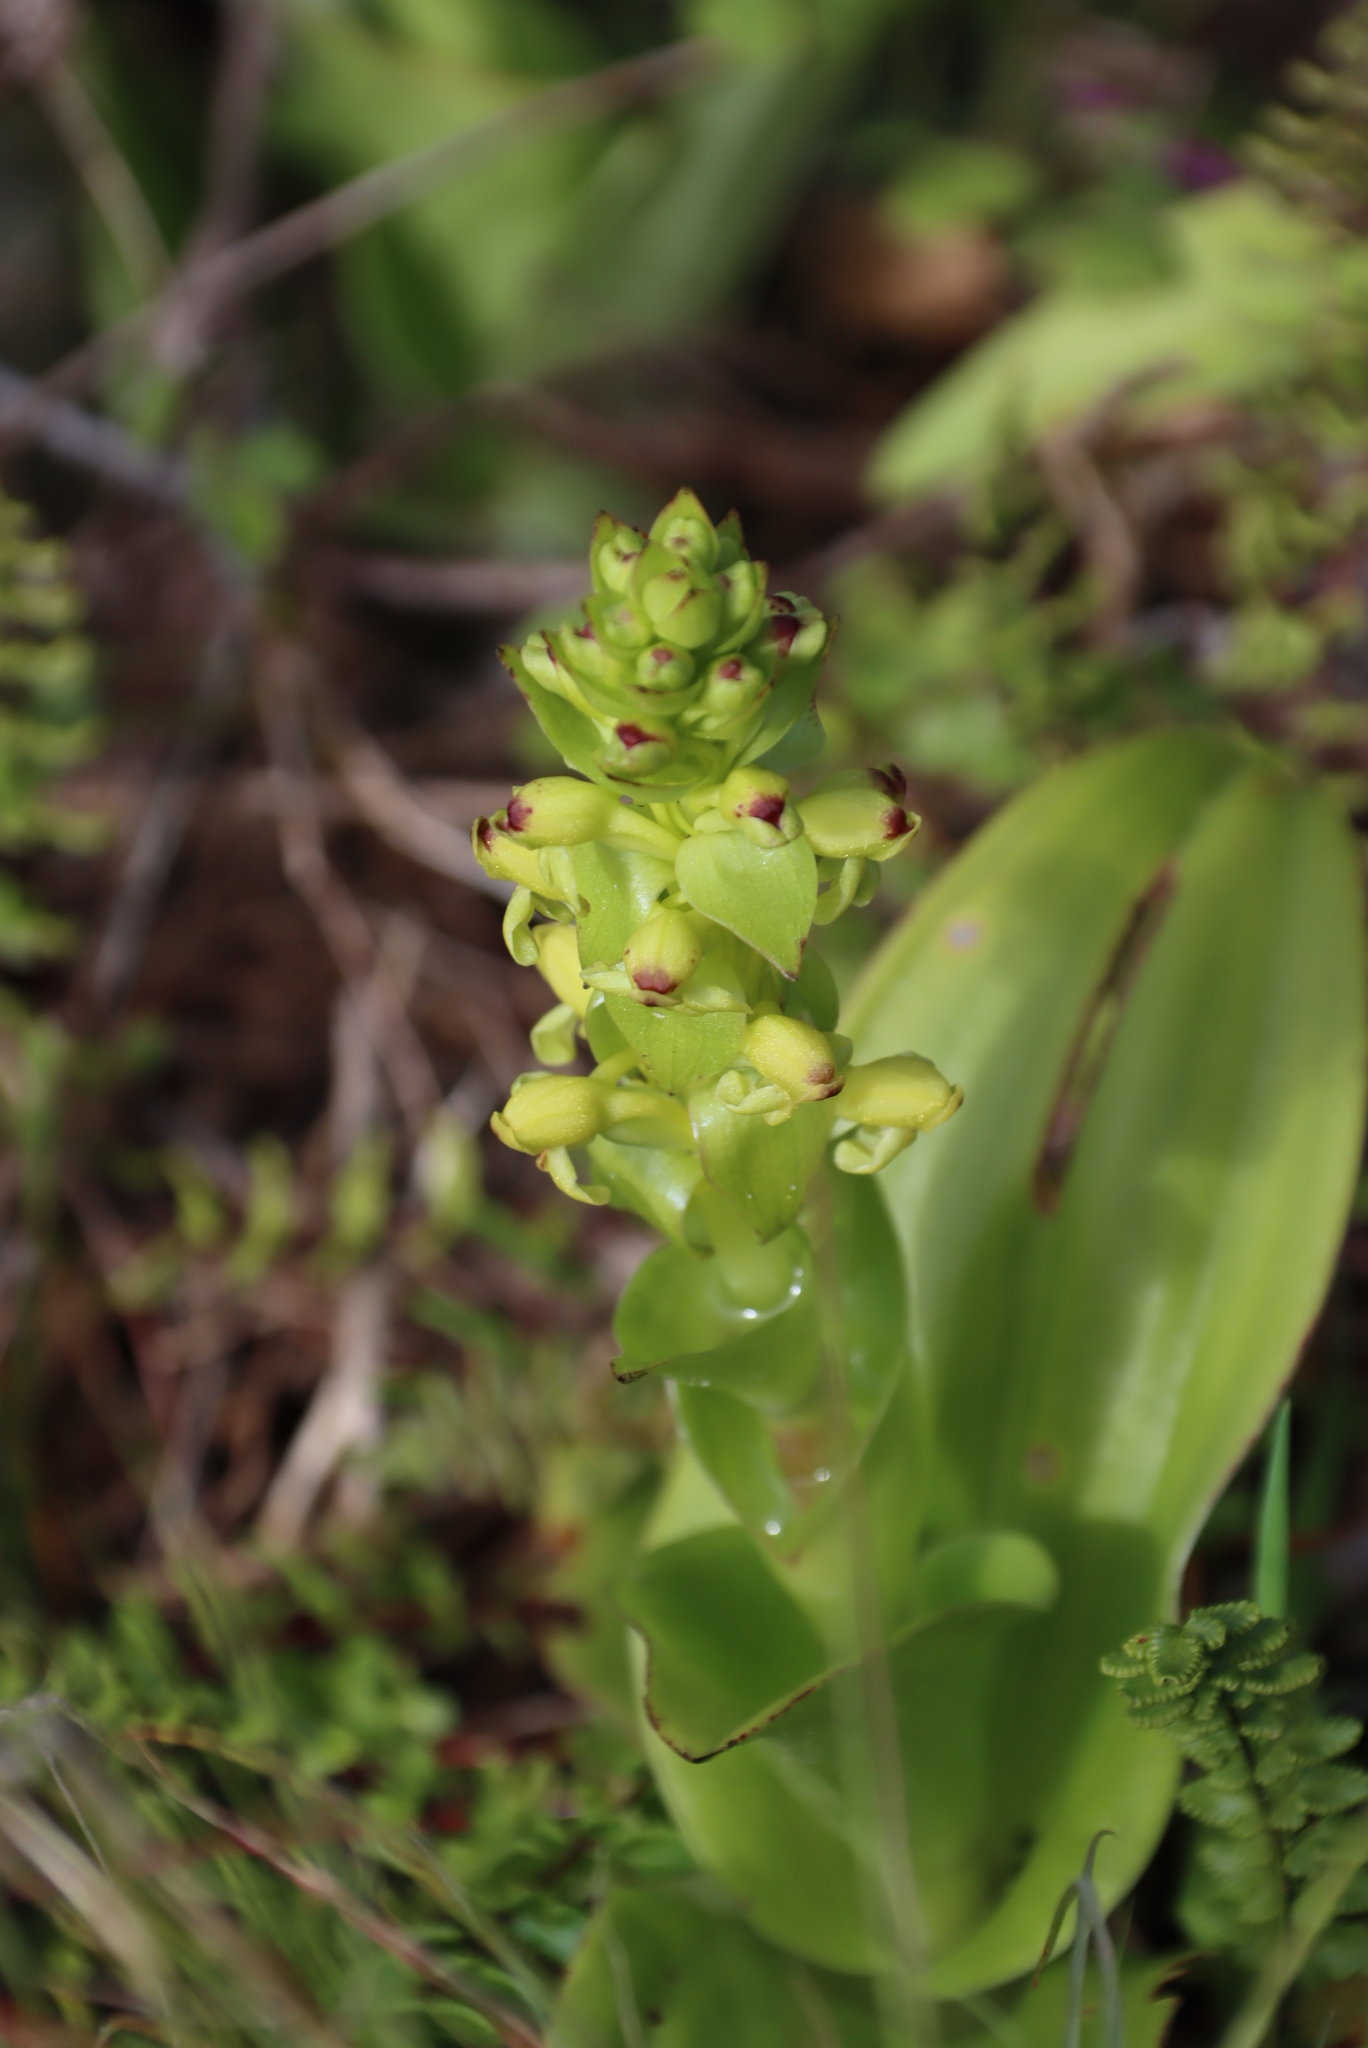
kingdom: Plantae
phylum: Tracheophyta
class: Liliopsida
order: Asparagales
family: Orchidaceae
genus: Satyrium
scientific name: Satyrium odorum
